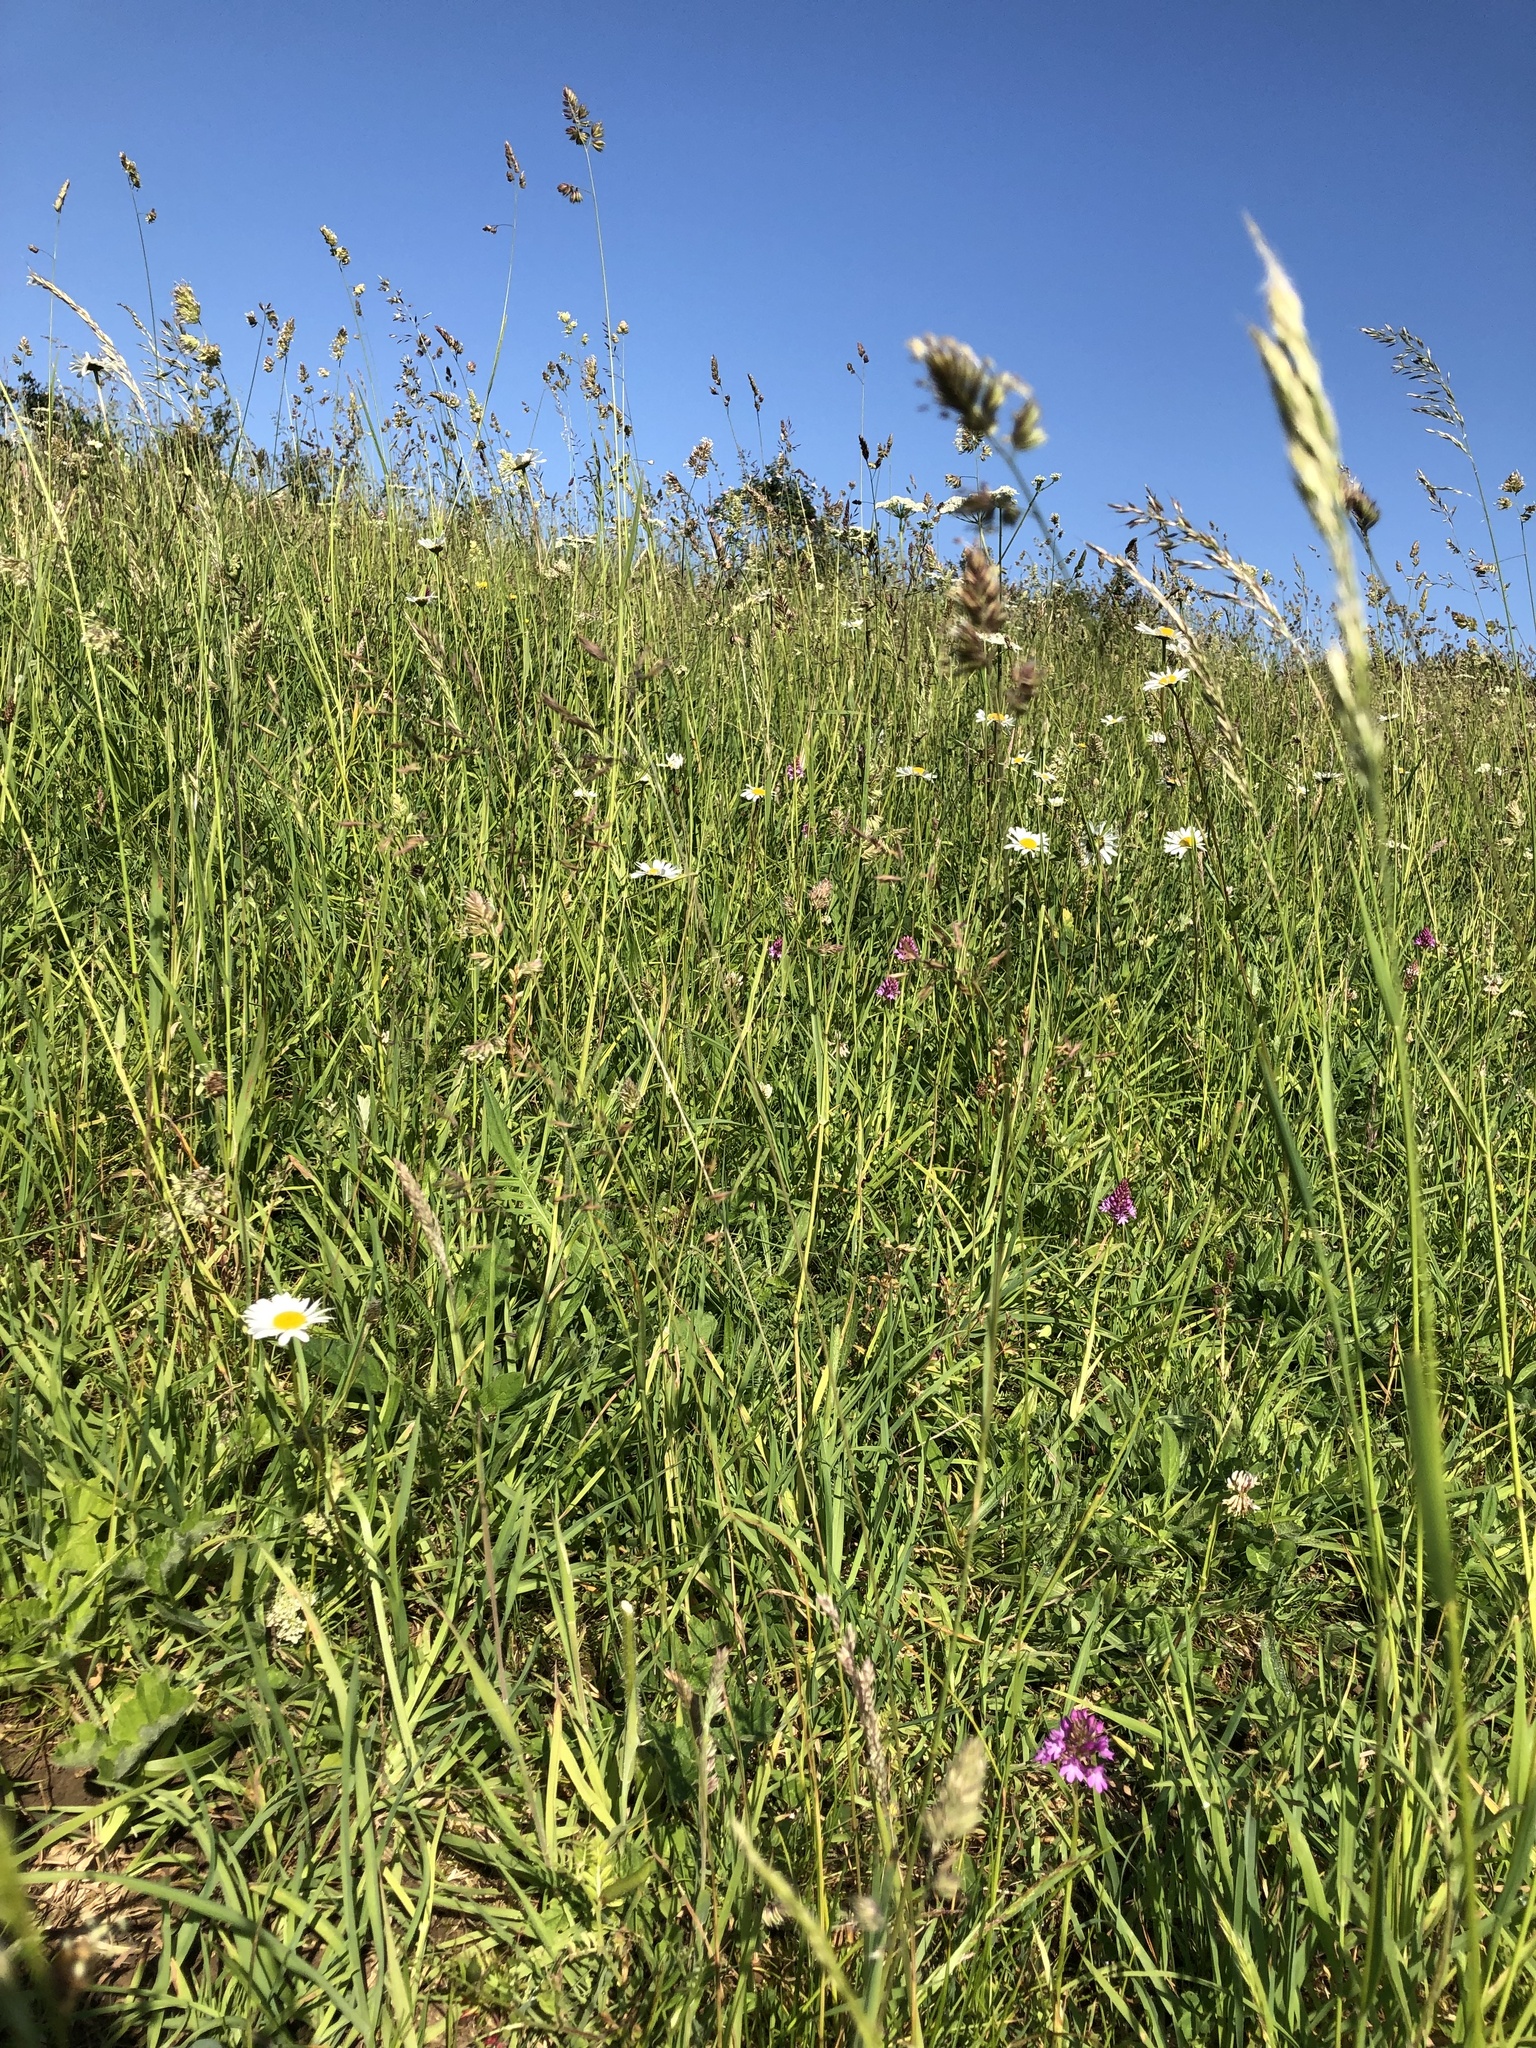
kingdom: Plantae
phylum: Tracheophyta
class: Liliopsida
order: Asparagales
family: Orchidaceae
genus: Anacamptis
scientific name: Anacamptis pyramidalis
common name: Pyramidal orchid
